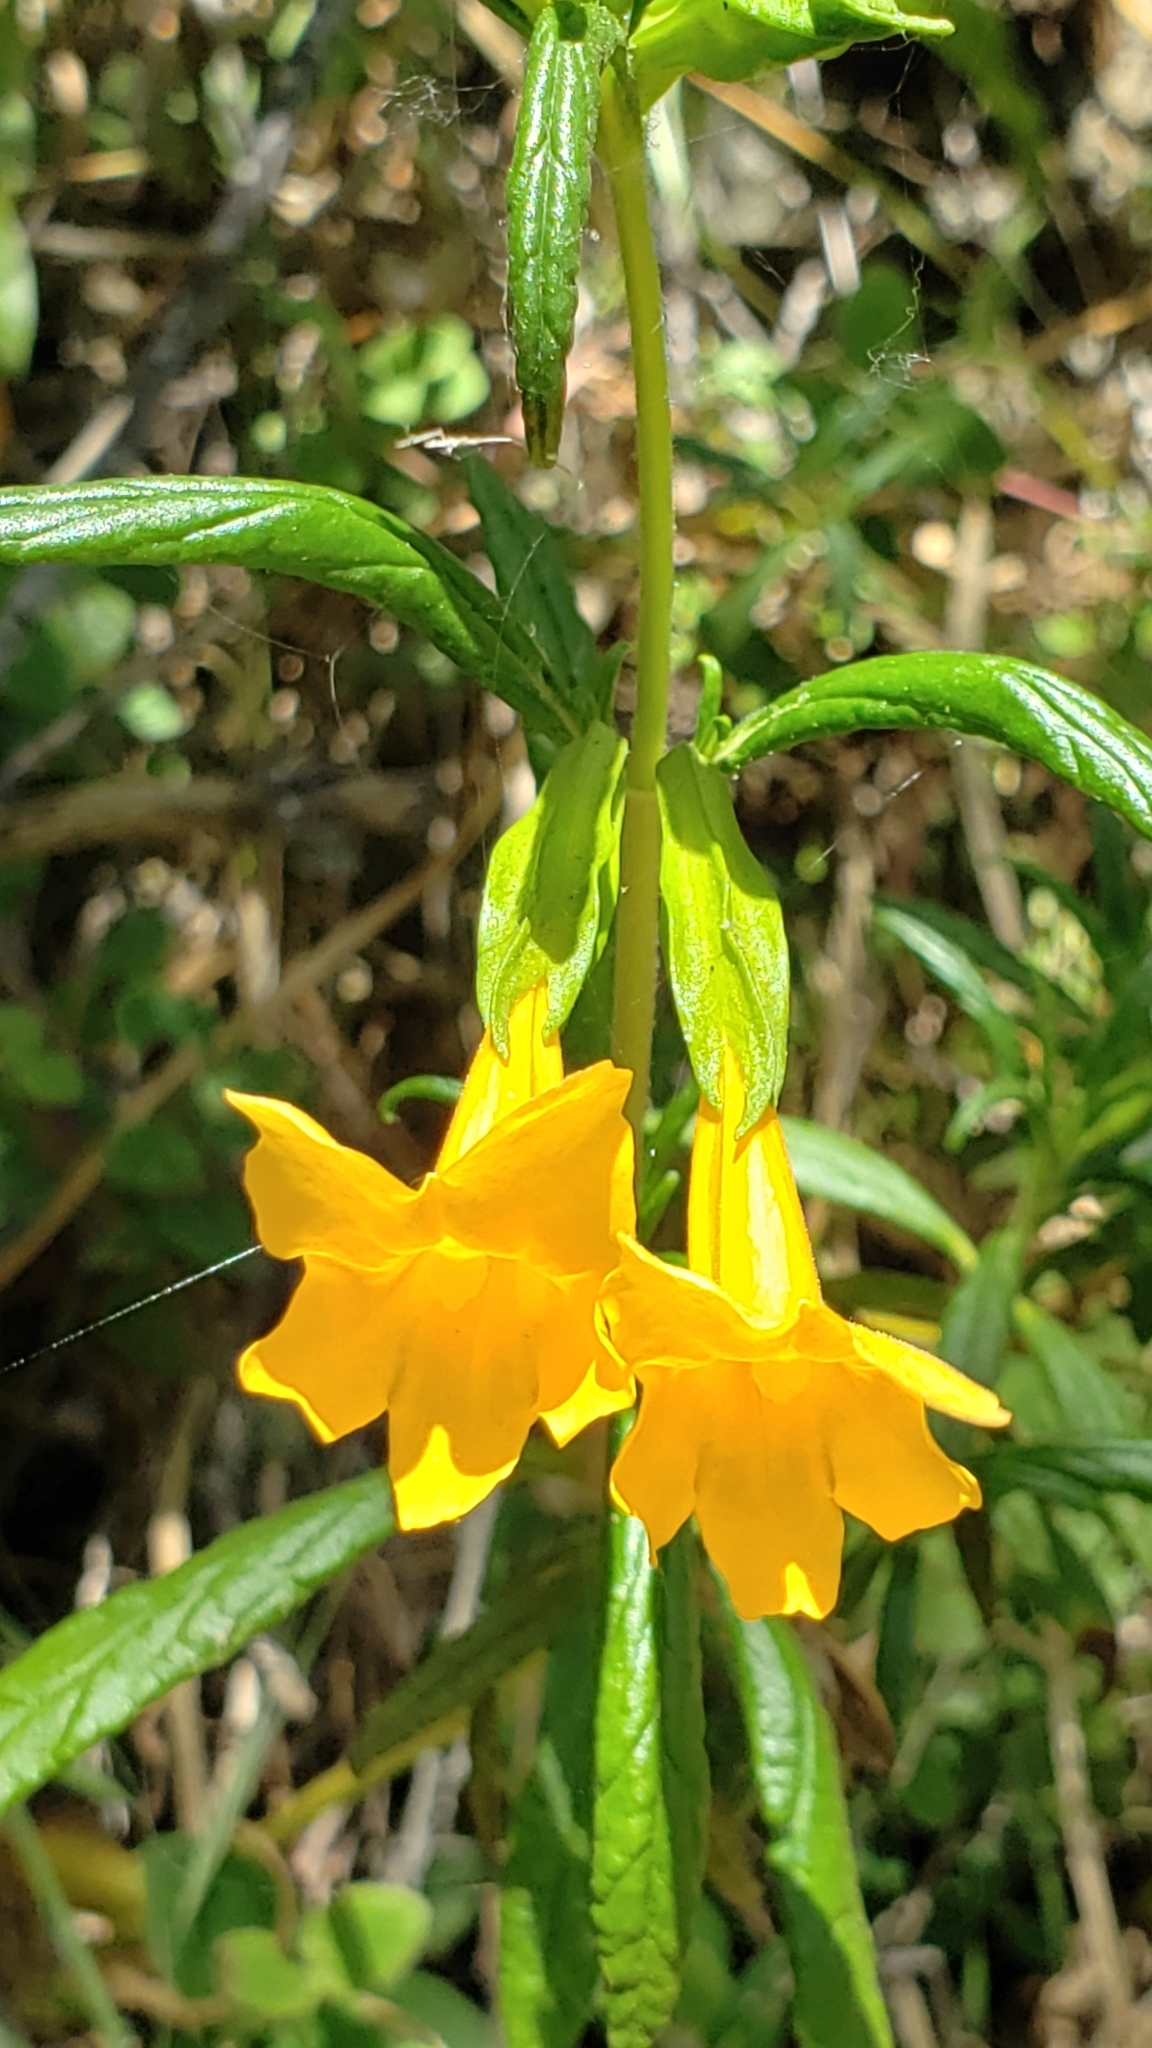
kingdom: Plantae
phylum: Tracheophyta
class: Magnoliopsida
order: Lamiales
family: Phrymaceae
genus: Diplacus
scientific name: Diplacus aurantiacus
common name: Bush monkey-flower
